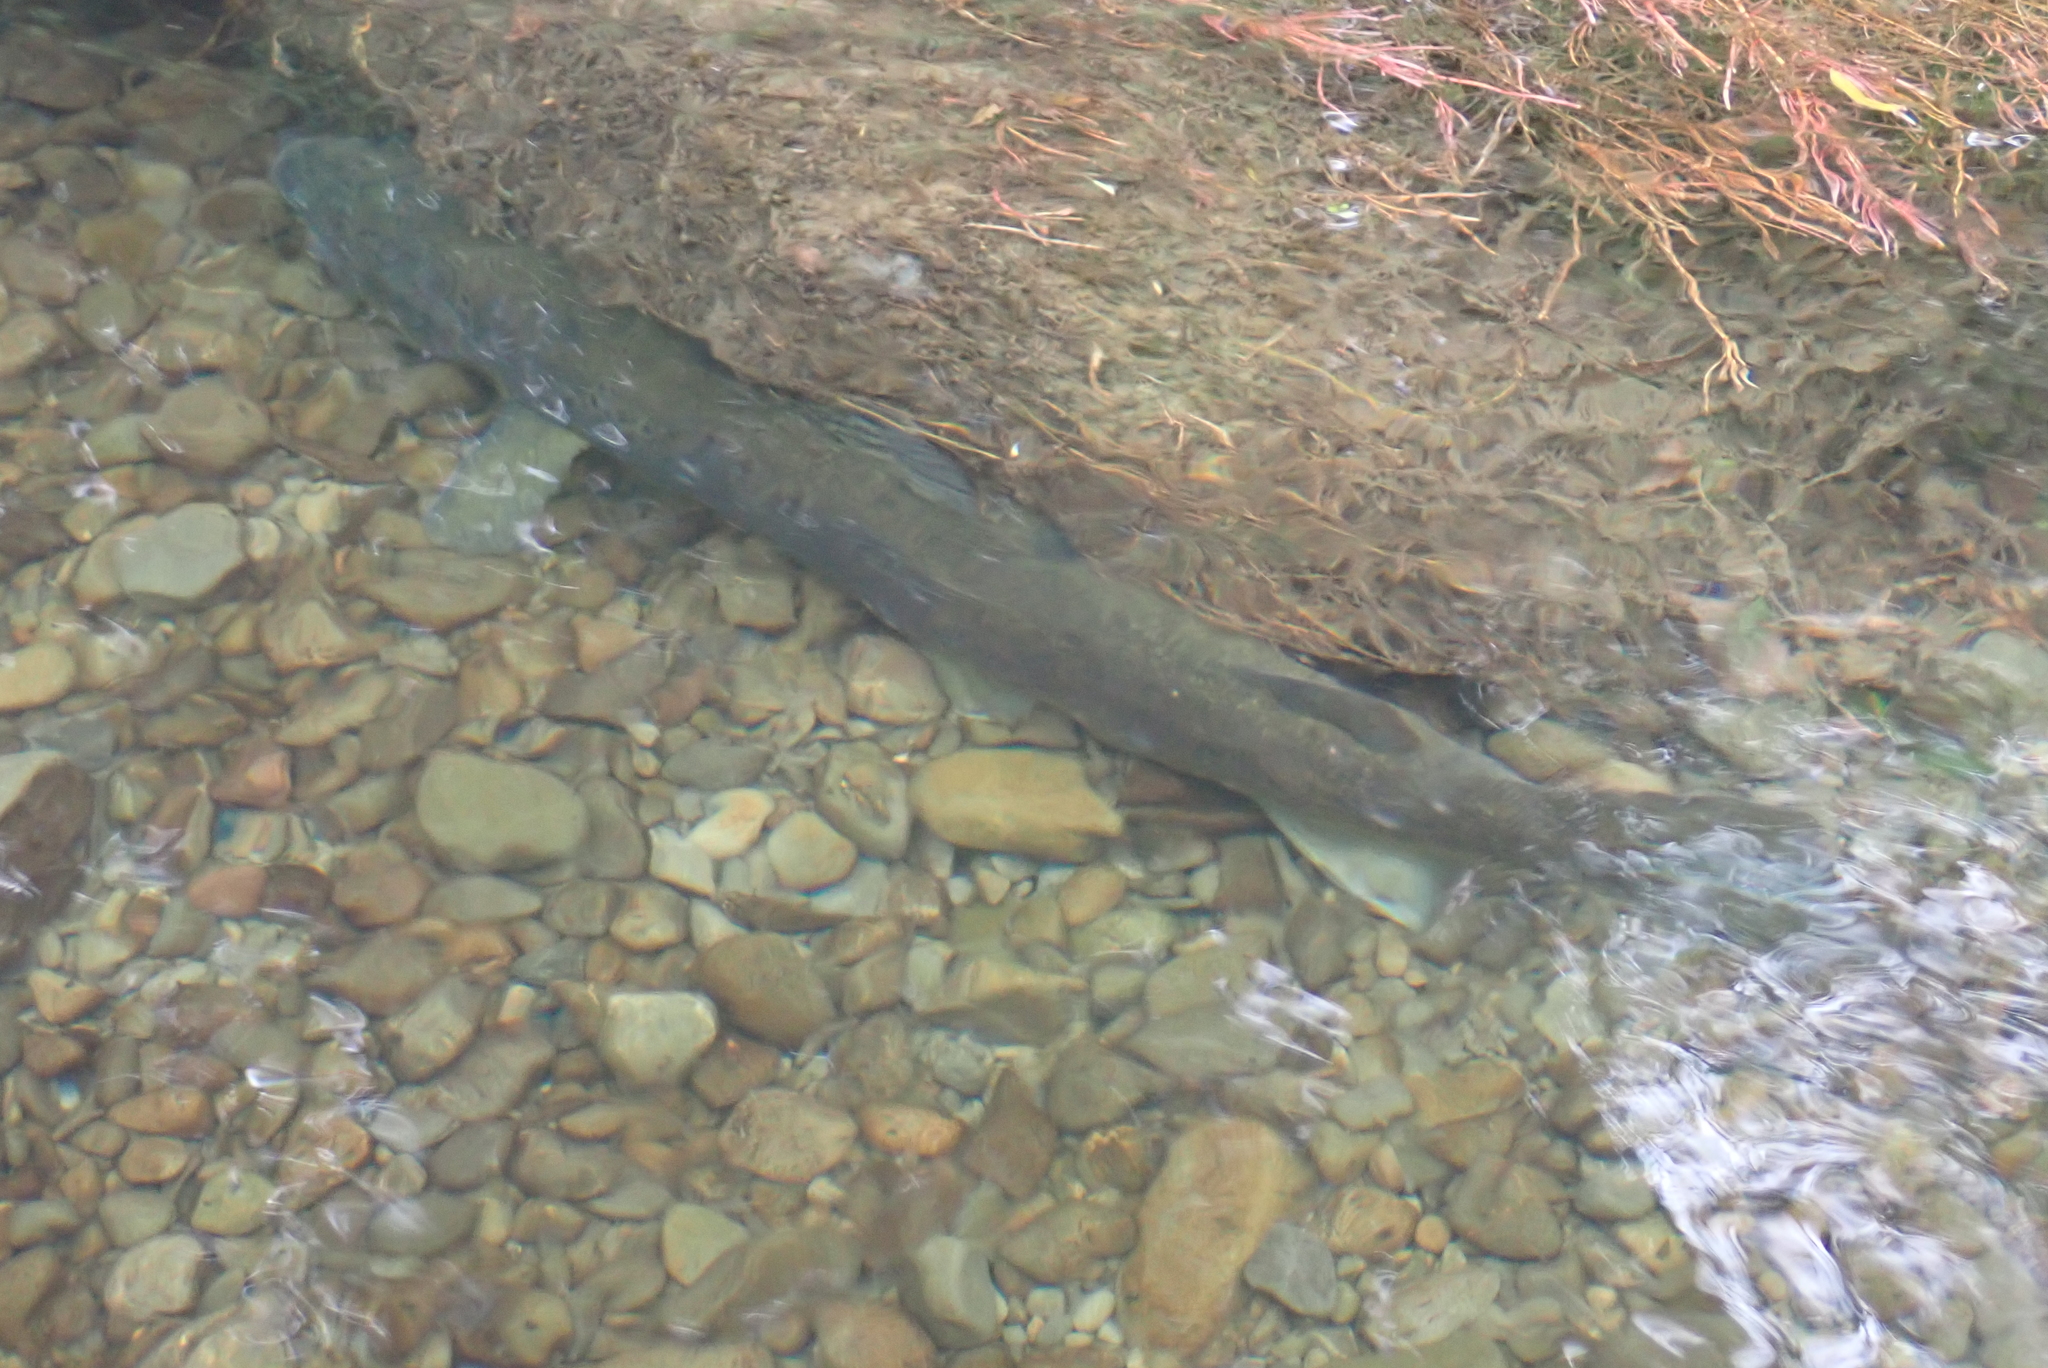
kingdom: Animalia
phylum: Chordata
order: Salmoniformes
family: Salmonidae
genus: Salmo
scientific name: Salmo trutta
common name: Brown trout
